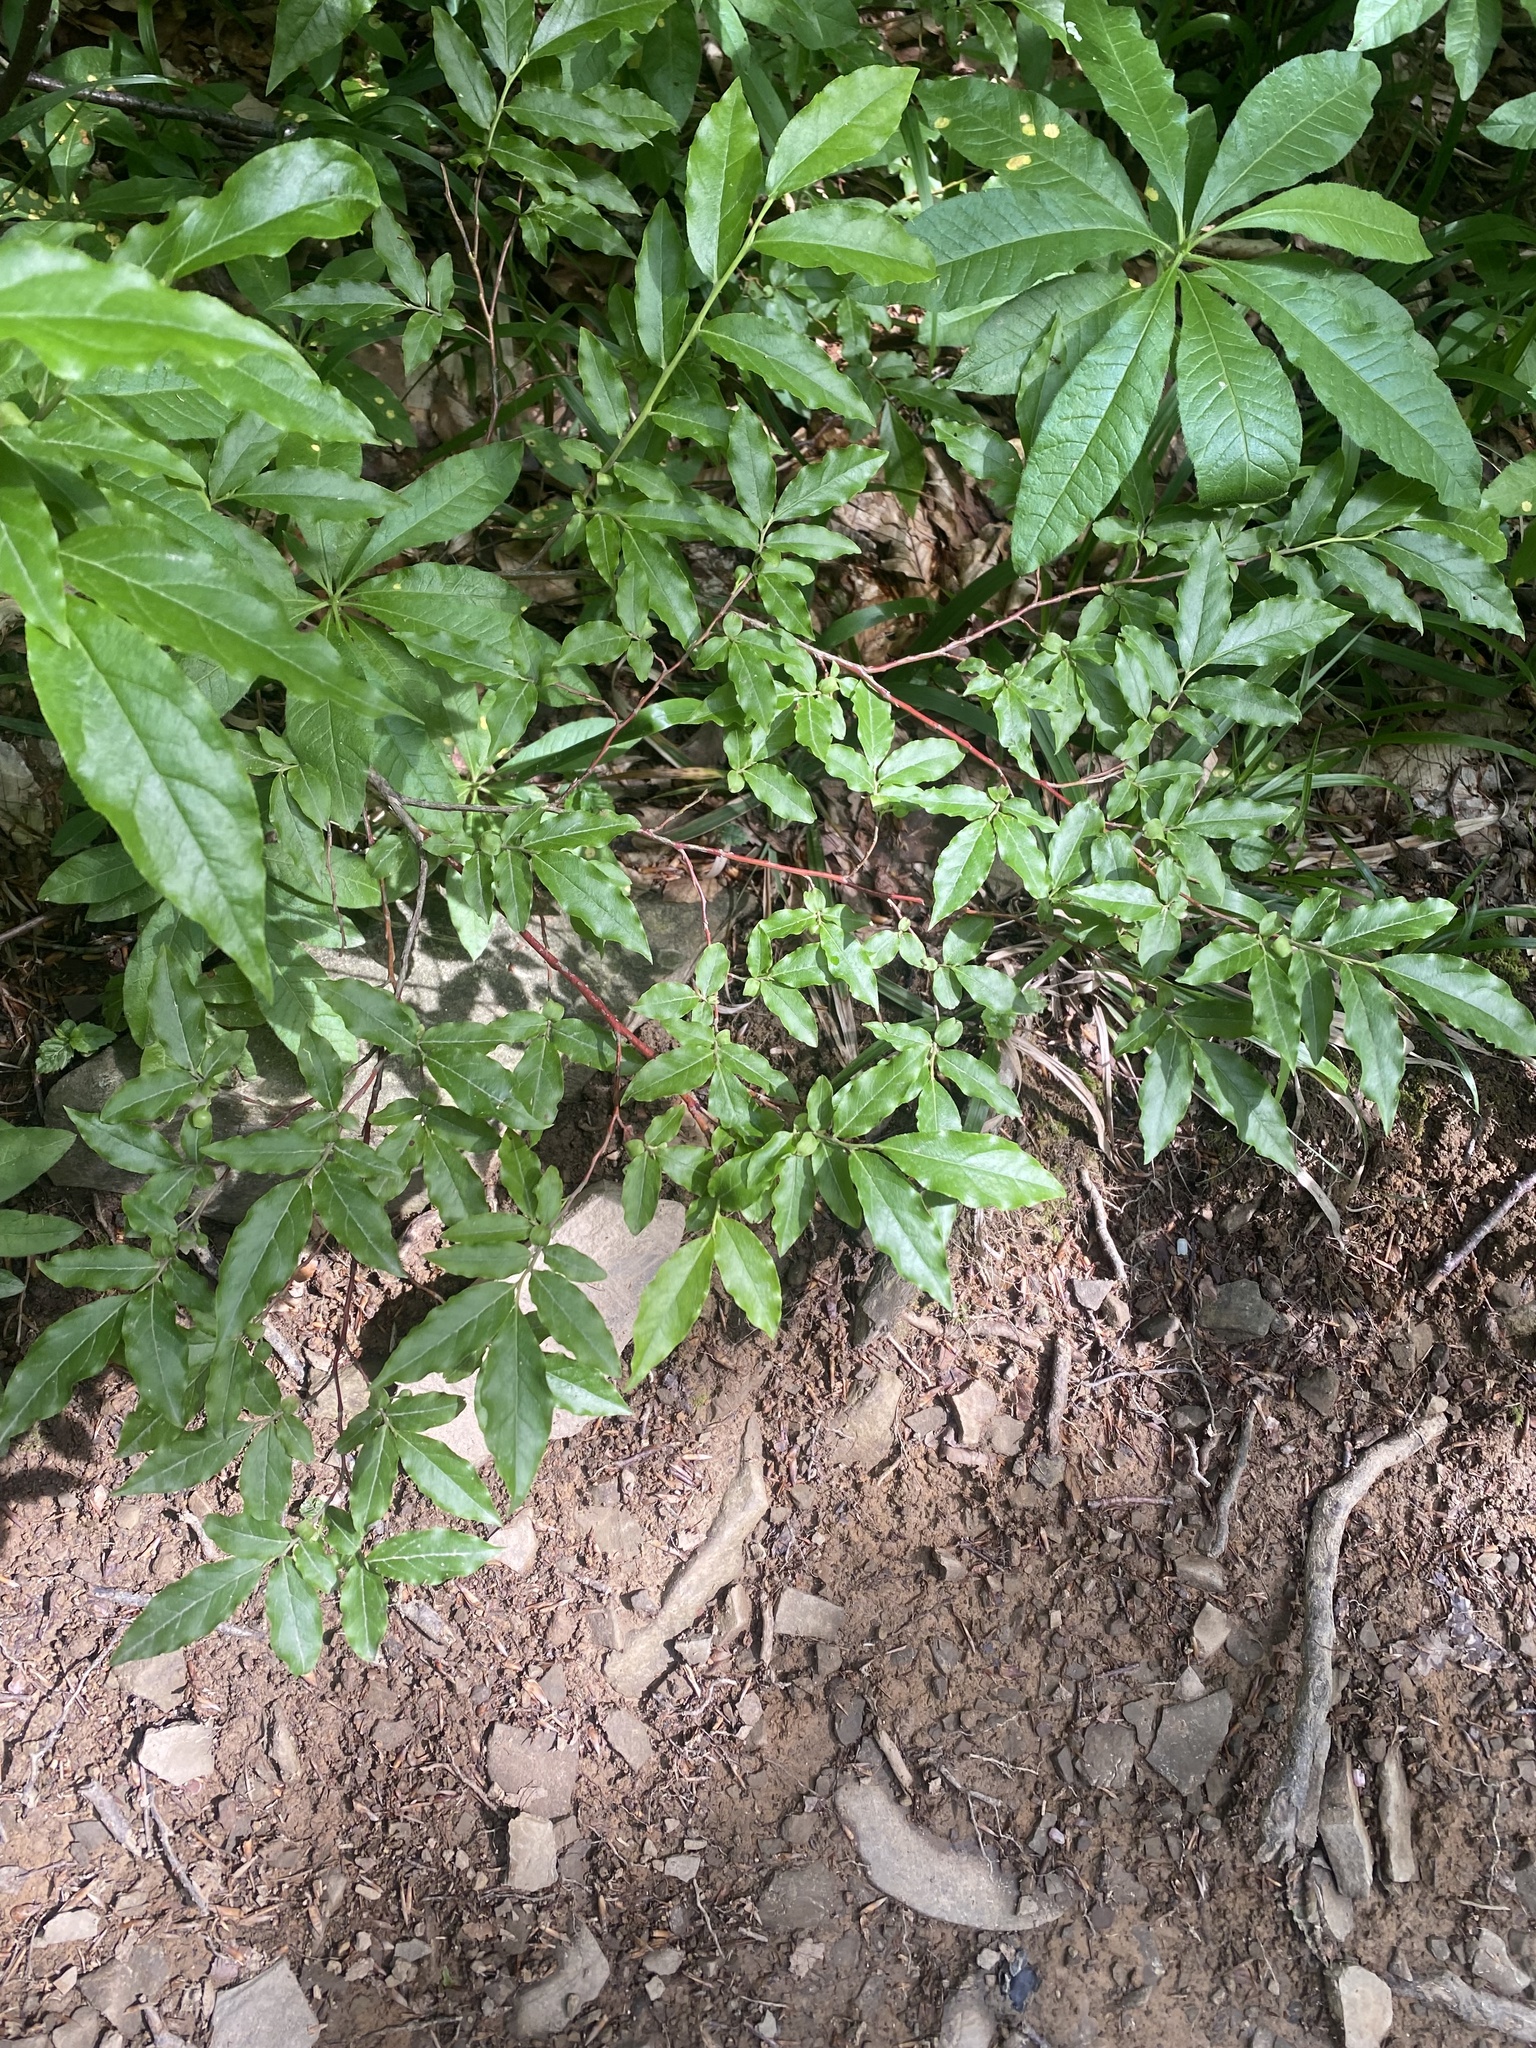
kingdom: Plantae
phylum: Tracheophyta
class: Magnoliopsida
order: Ericales
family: Ericaceae
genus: Vaccinium
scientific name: Vaccinium arctostaphylos
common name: Caucasian whortleberry
